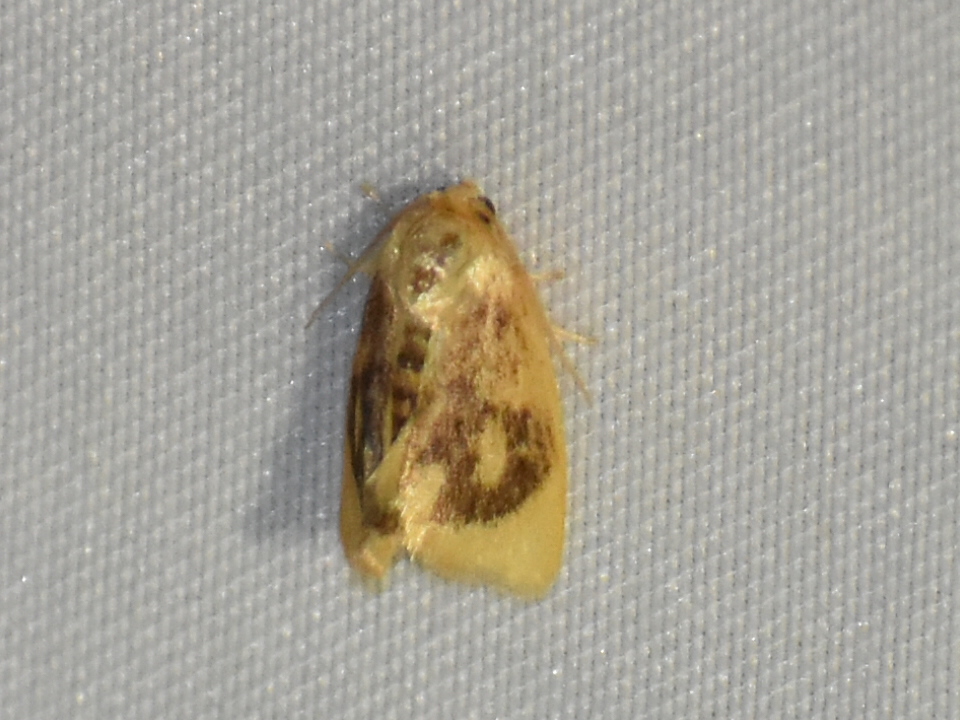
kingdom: Animalia
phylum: Arthropoda
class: Insecta
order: Lepidoptera
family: Limacodidae
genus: Tortricidia
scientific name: Tortricidia flexuosa
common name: Abbreviated button slug moth
